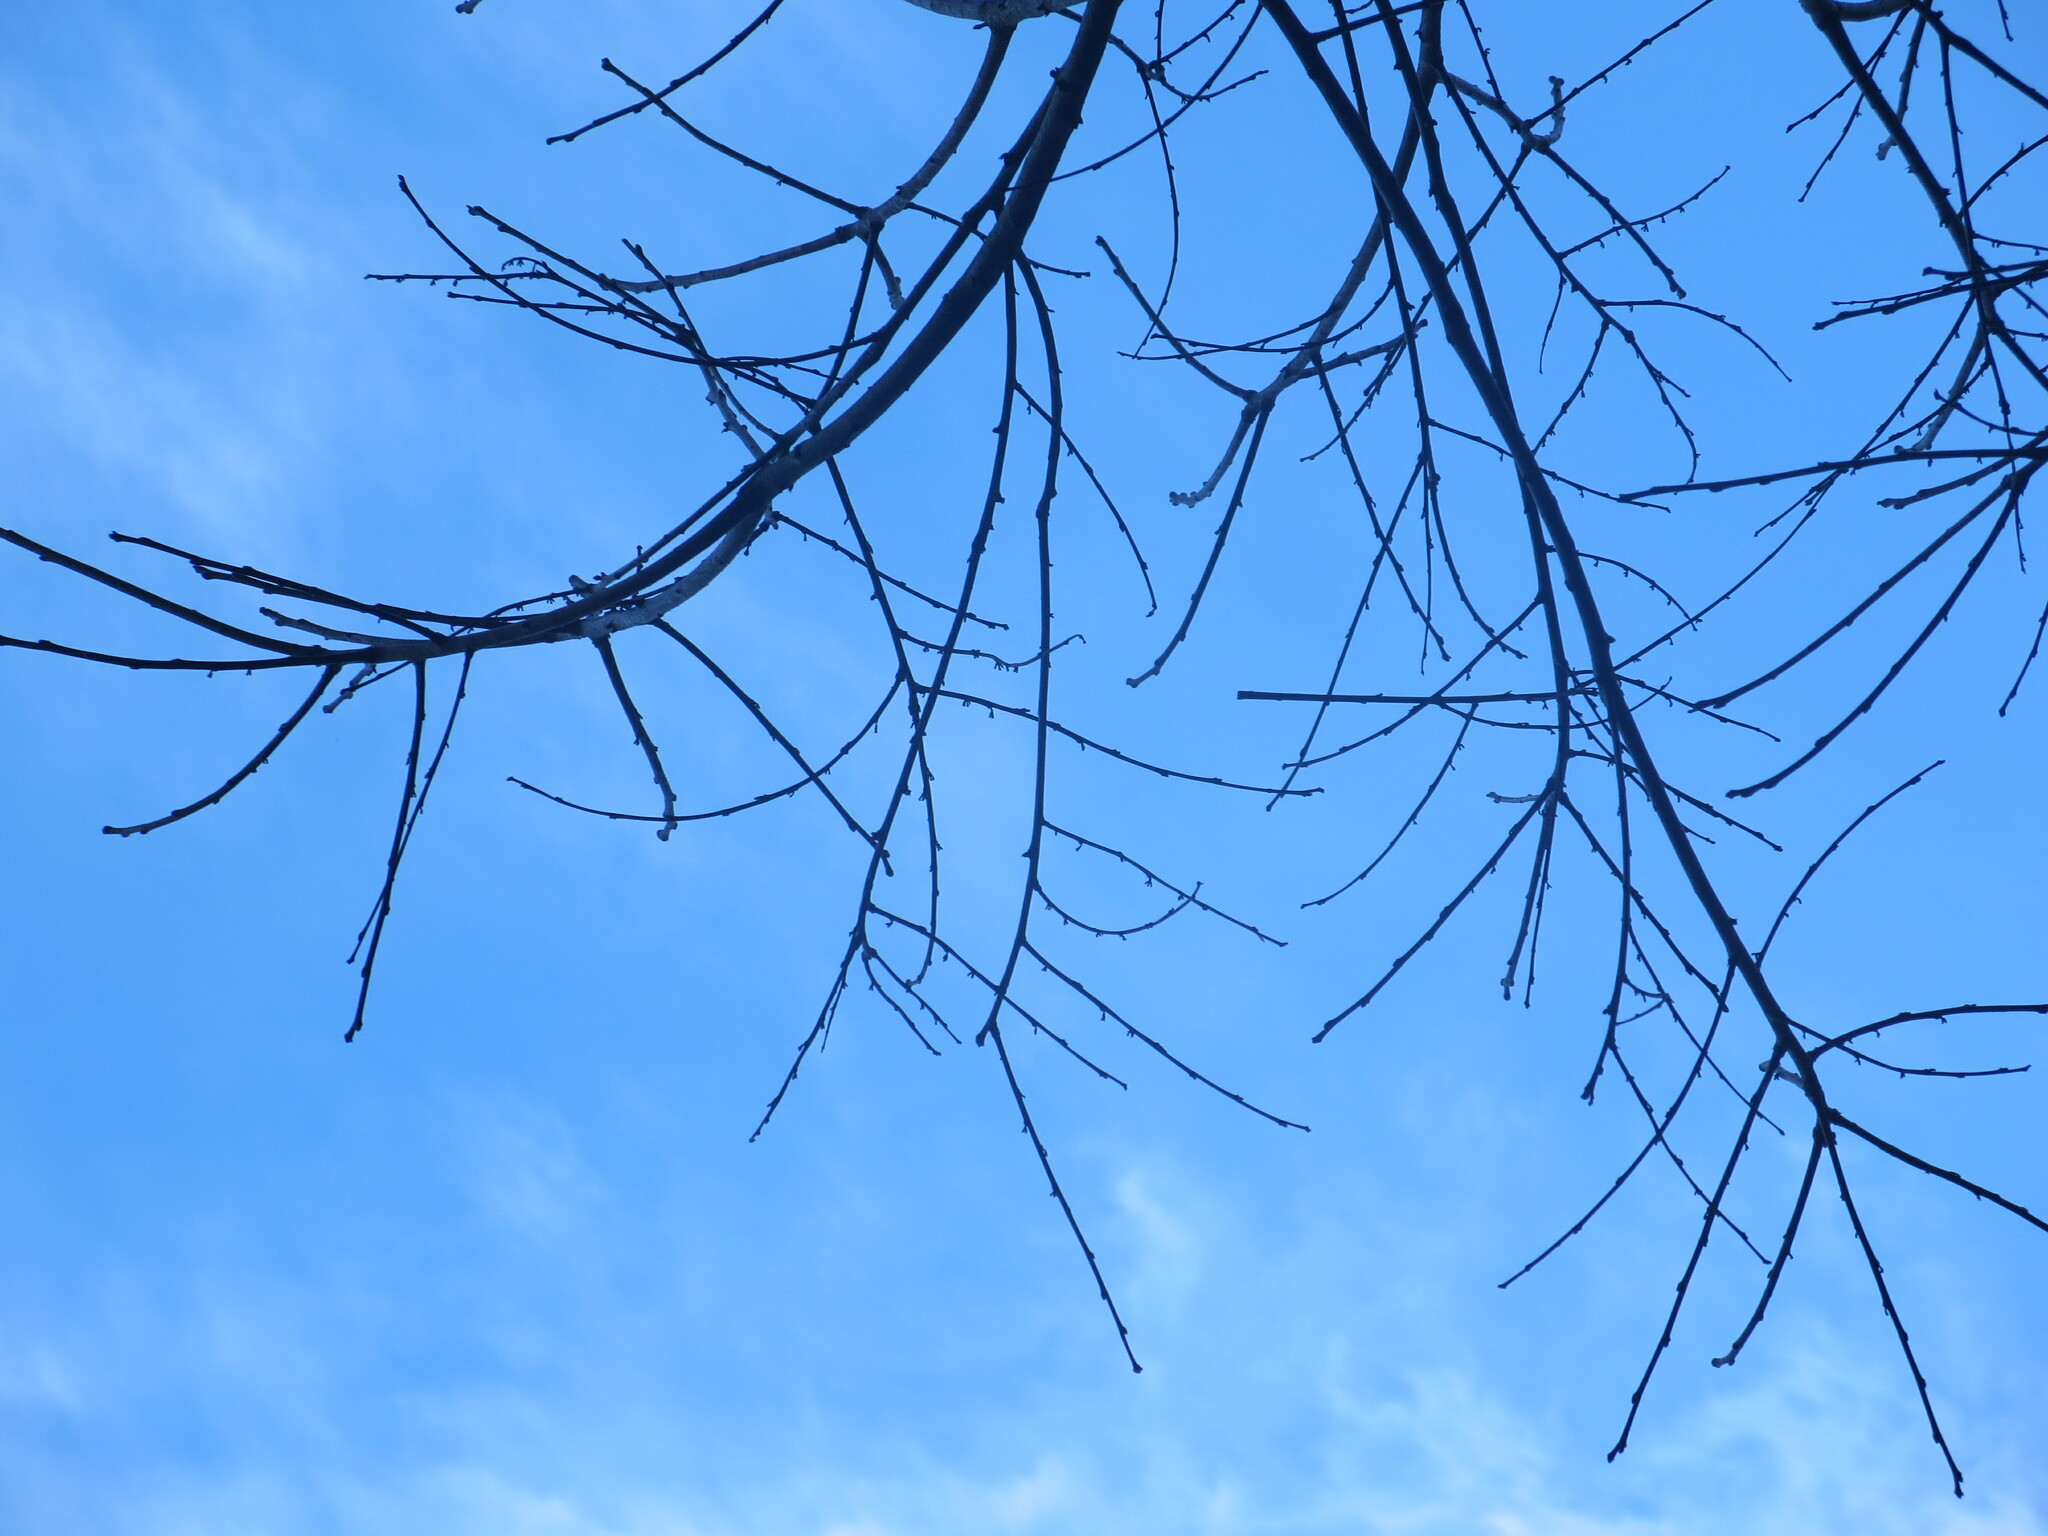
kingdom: Plantae
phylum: Tracheophyta
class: Magnoliopsida
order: Ericales
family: Ebenaceae
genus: Diospyros
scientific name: Diospyros virginiana
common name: Persimmon
